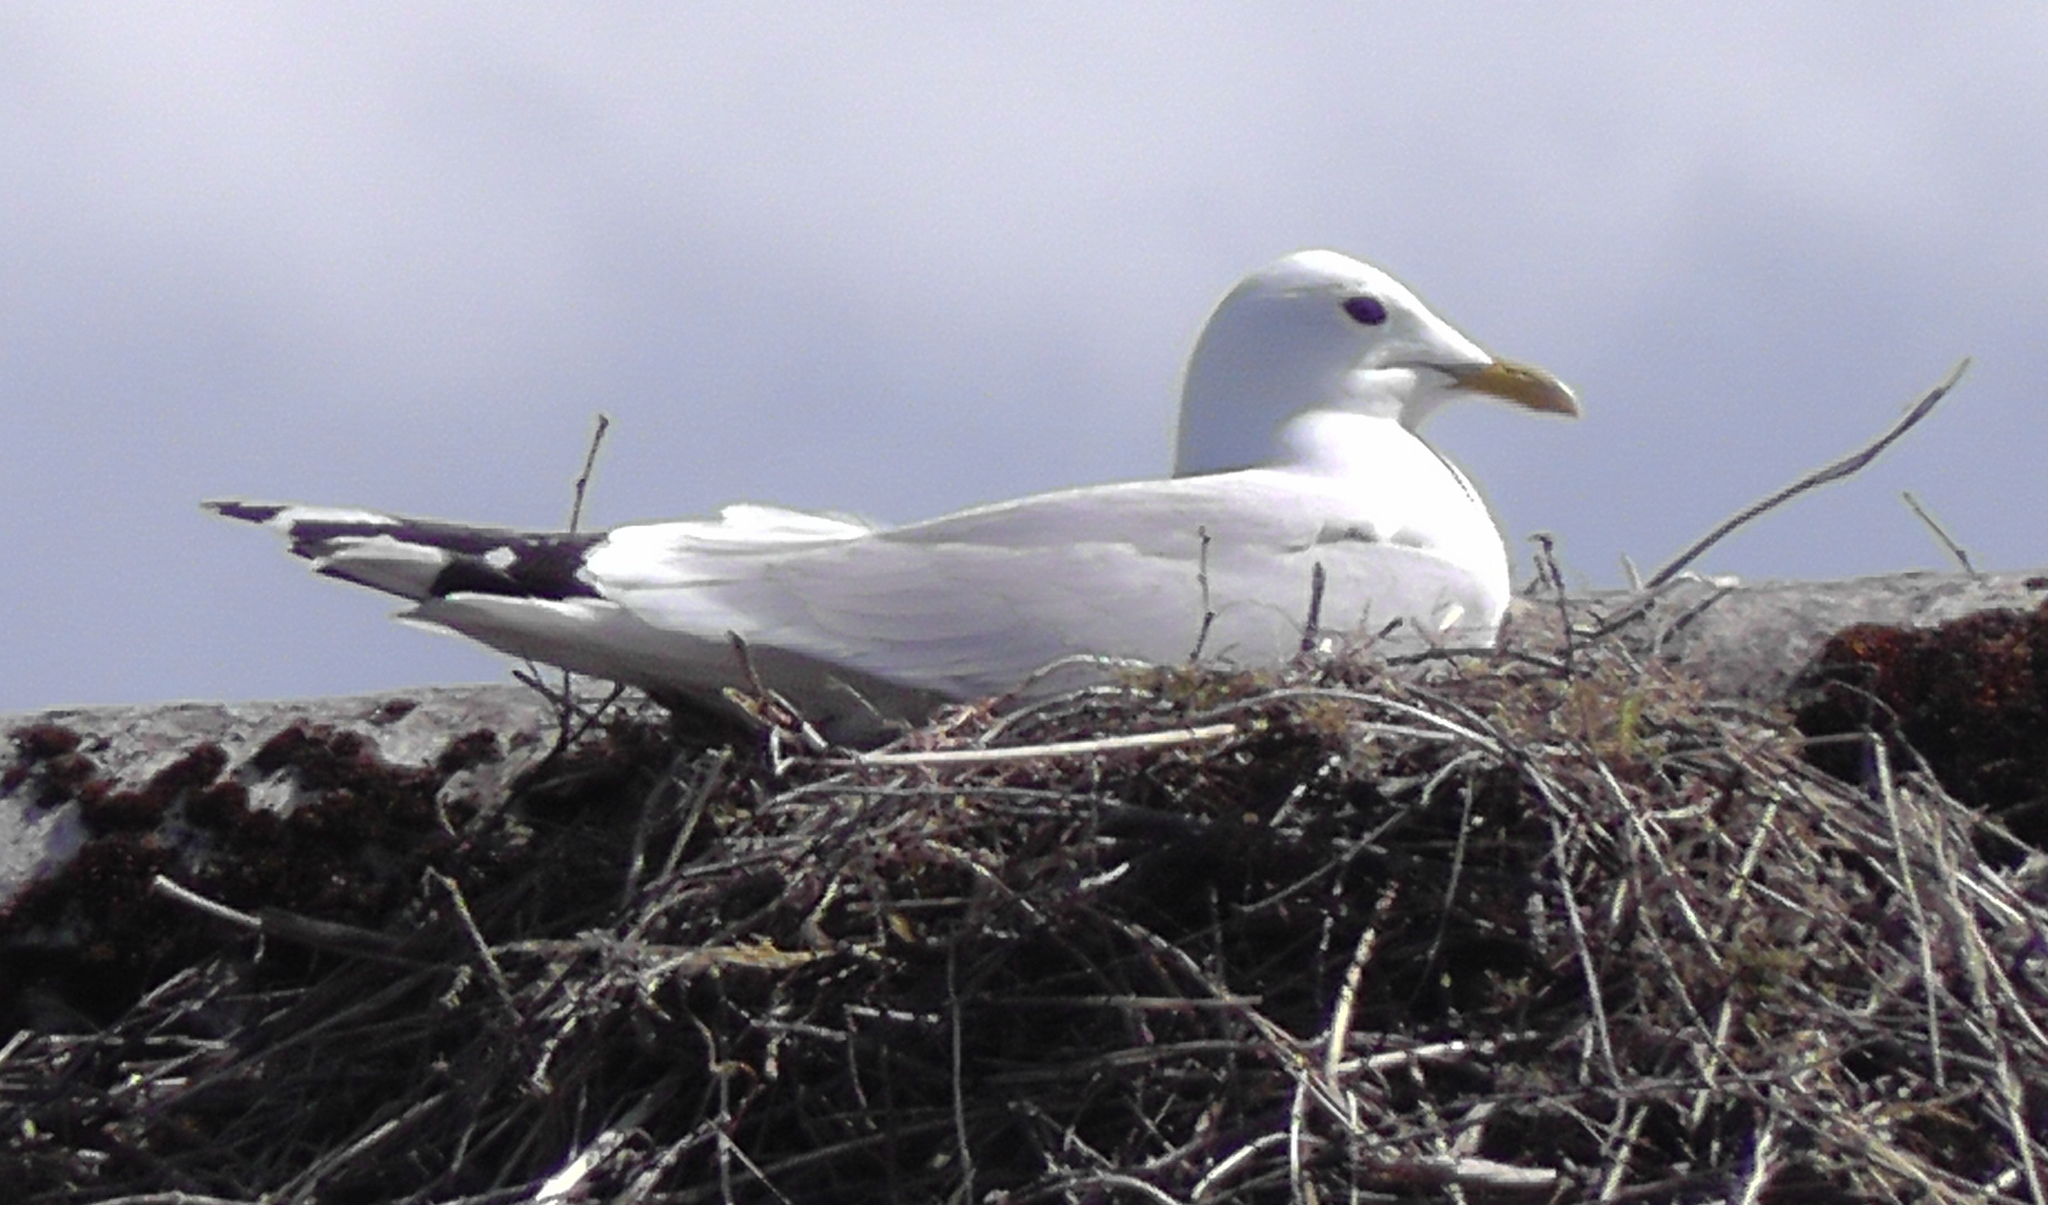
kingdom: Animalia
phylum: Chordata
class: Aves
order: Charadriiformes
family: Laridae
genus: Larus
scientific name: Larus canus
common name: Mew gull
